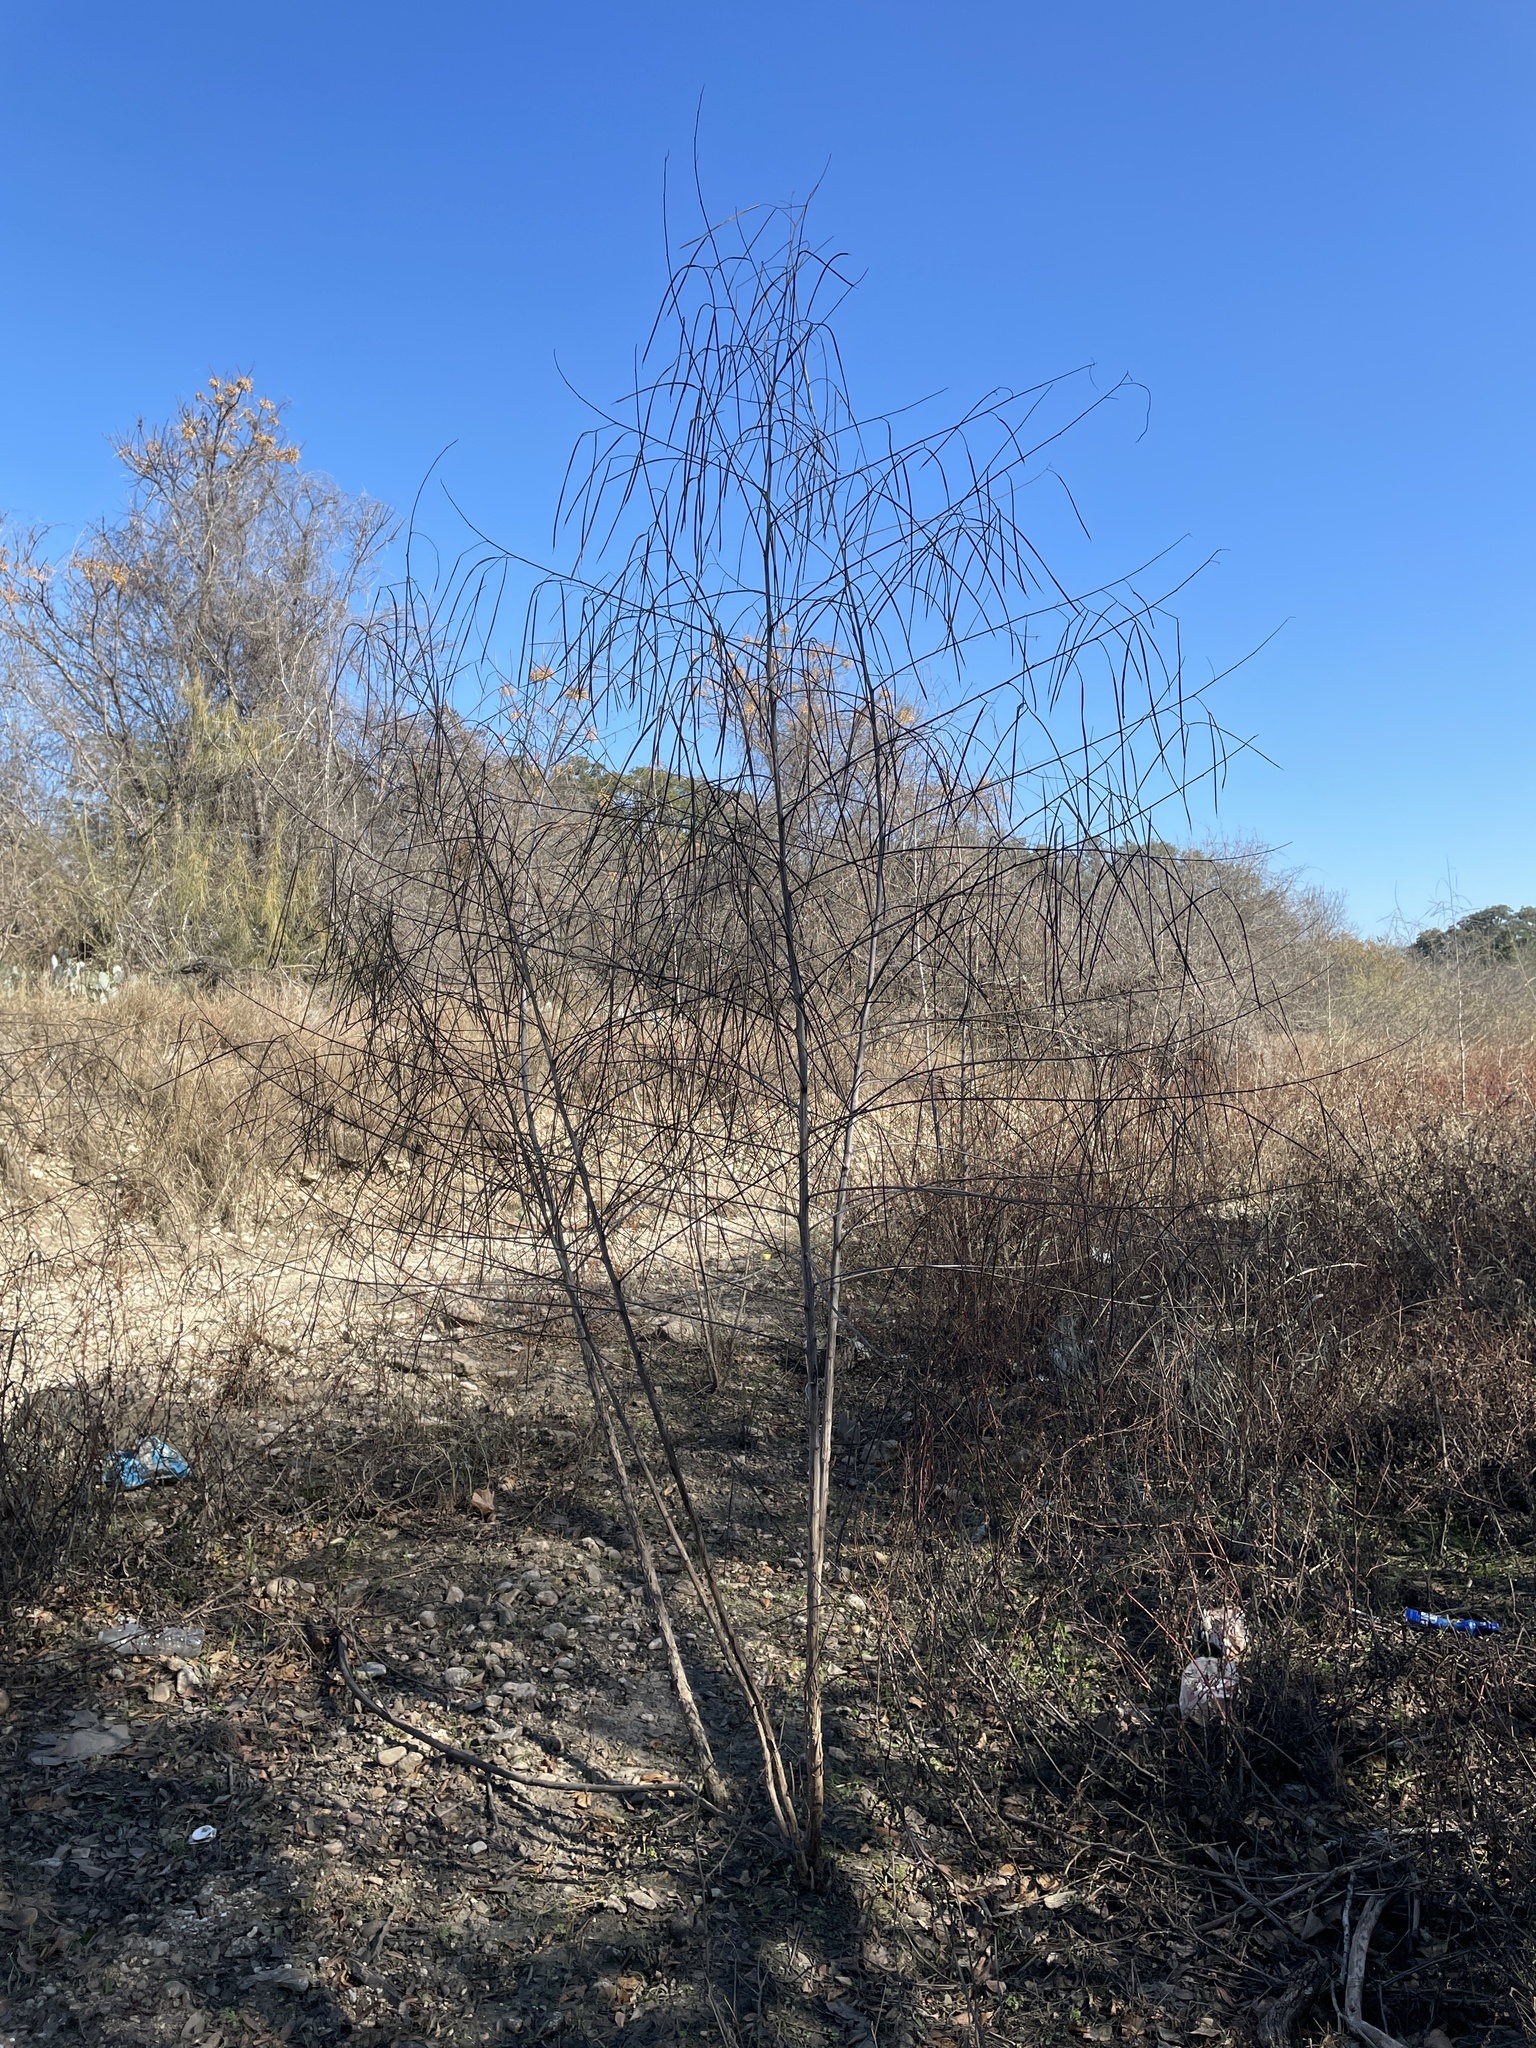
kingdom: Plantae
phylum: Tracheophyta
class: Magnoliopsida
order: Fabales
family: Fabaceae
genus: Sesbania
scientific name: Sesbania herbacea
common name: Bigpod sesbania
